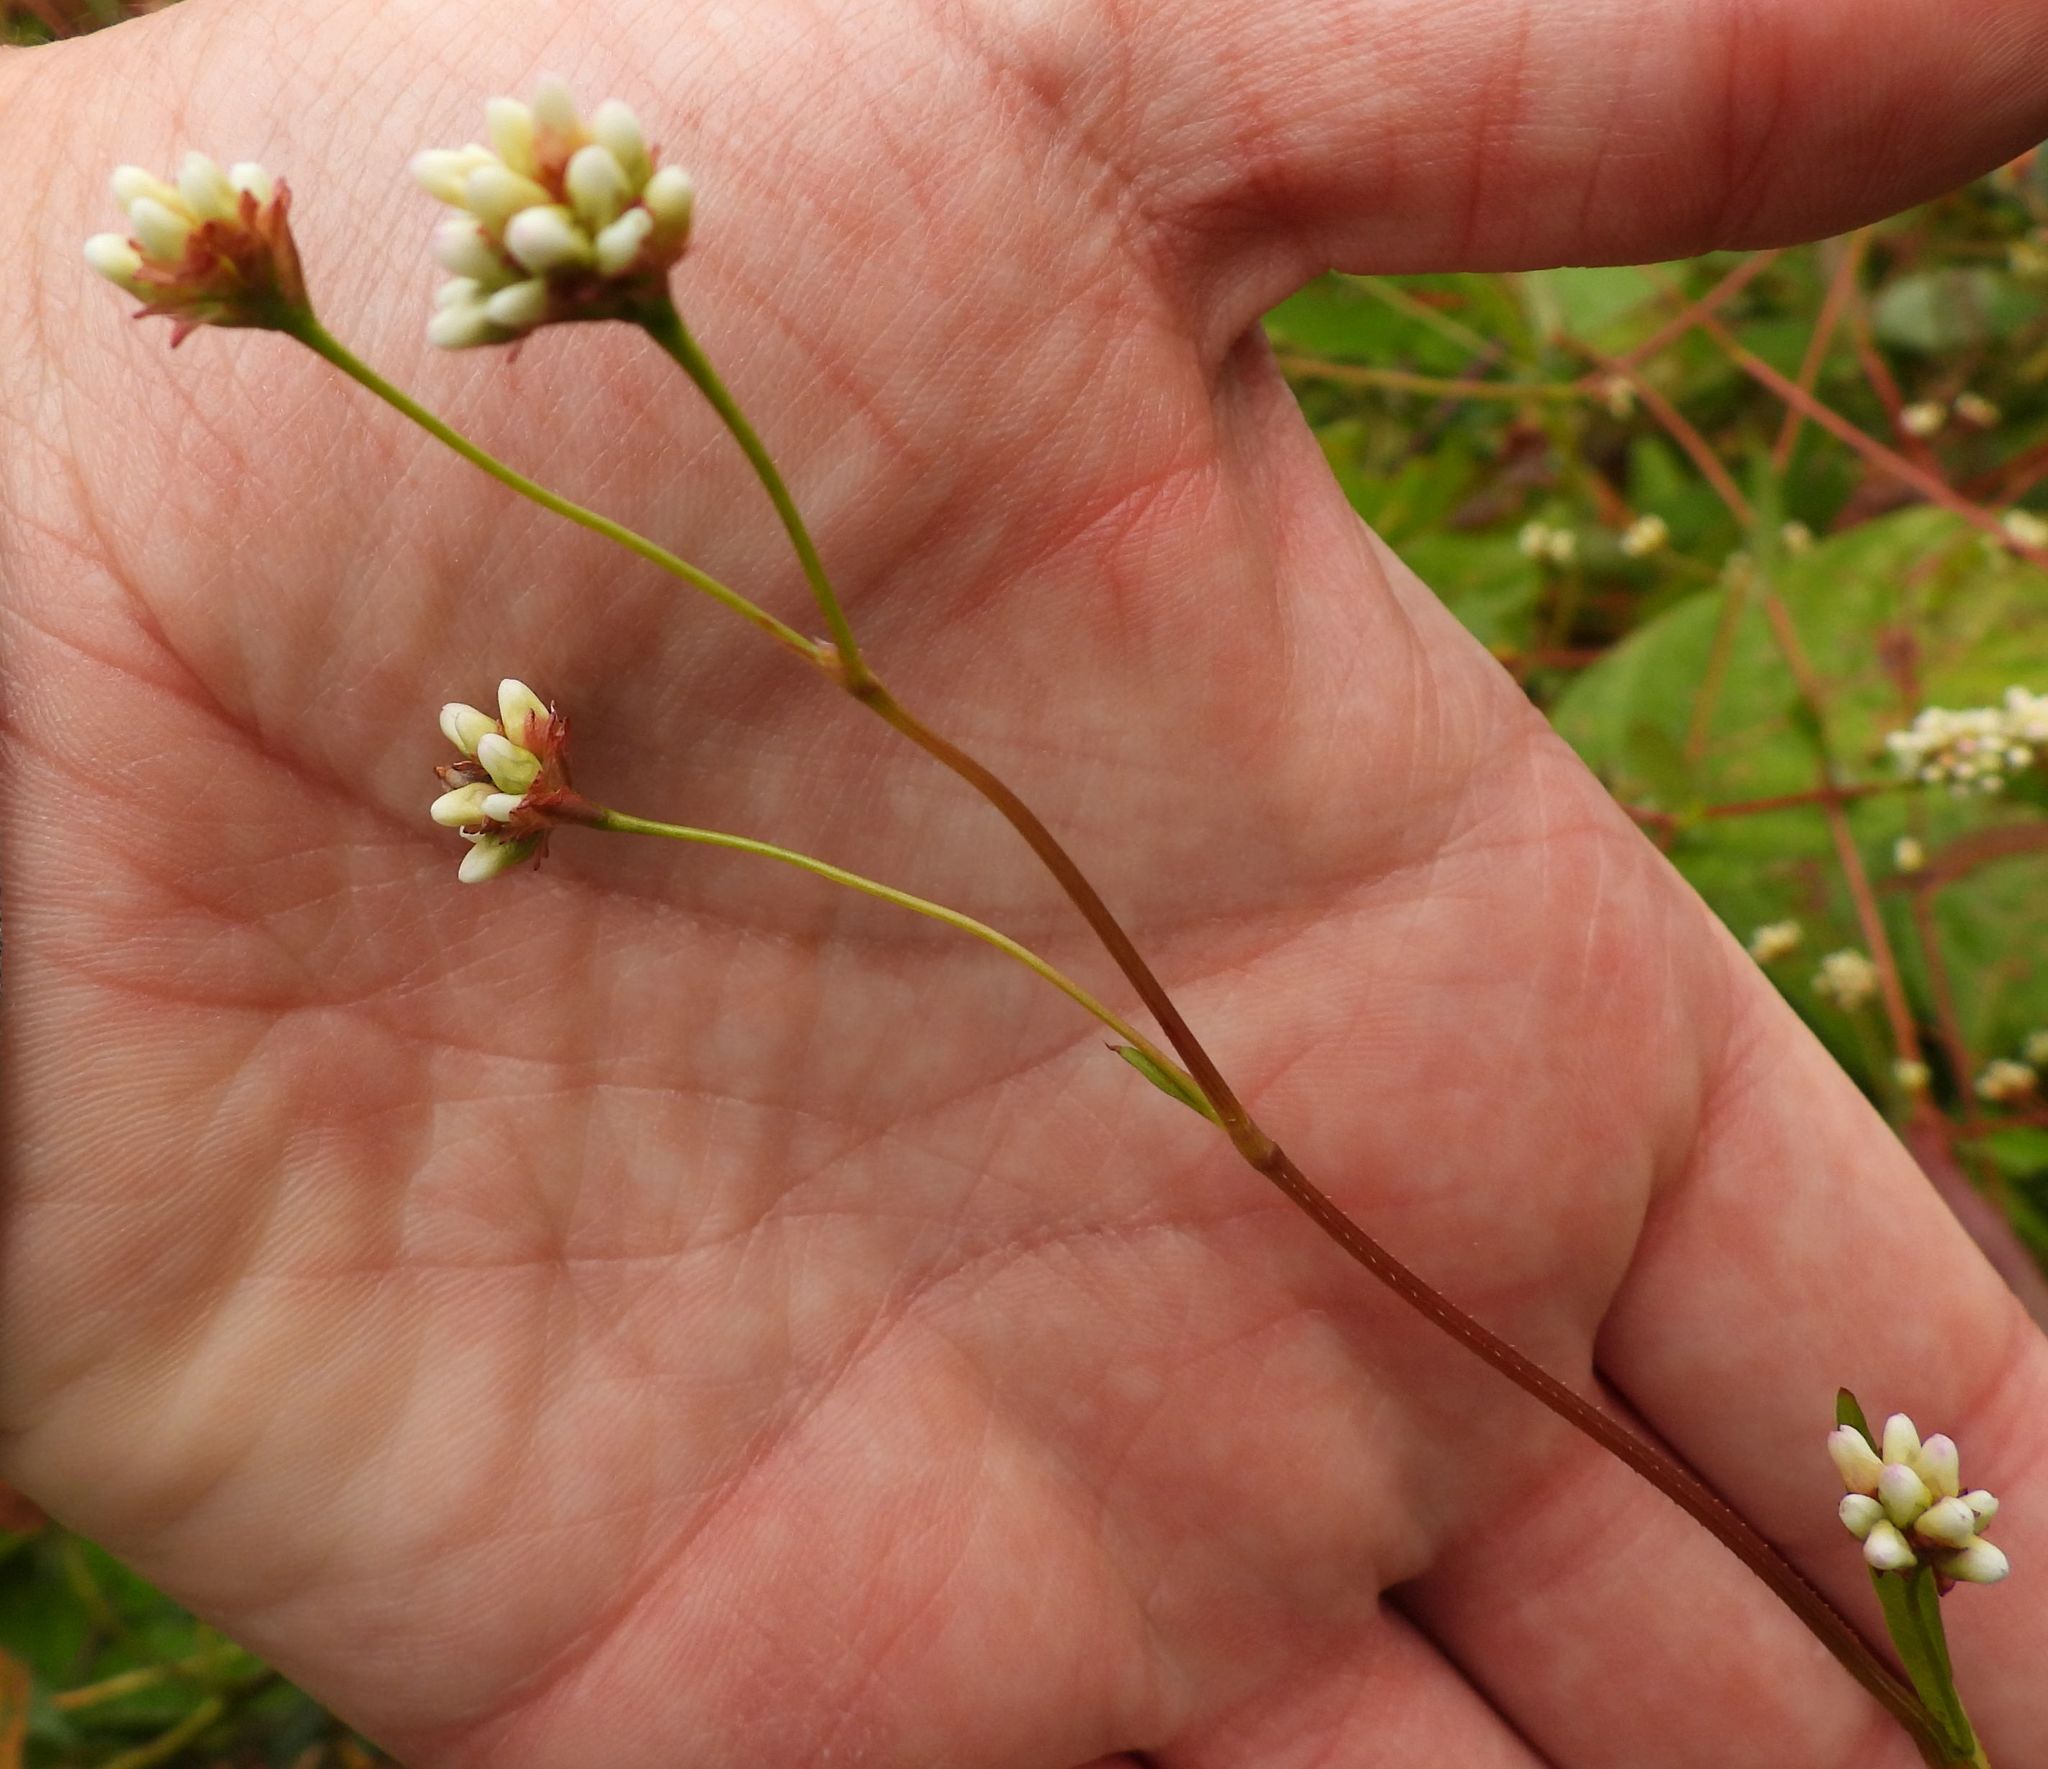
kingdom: Plantae
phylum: Tracheophyta
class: Magnoliopsida
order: Caryophyllales
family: Polygonaceae
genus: Persicaria
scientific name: Persicaria sagittata
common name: American tearthumb
